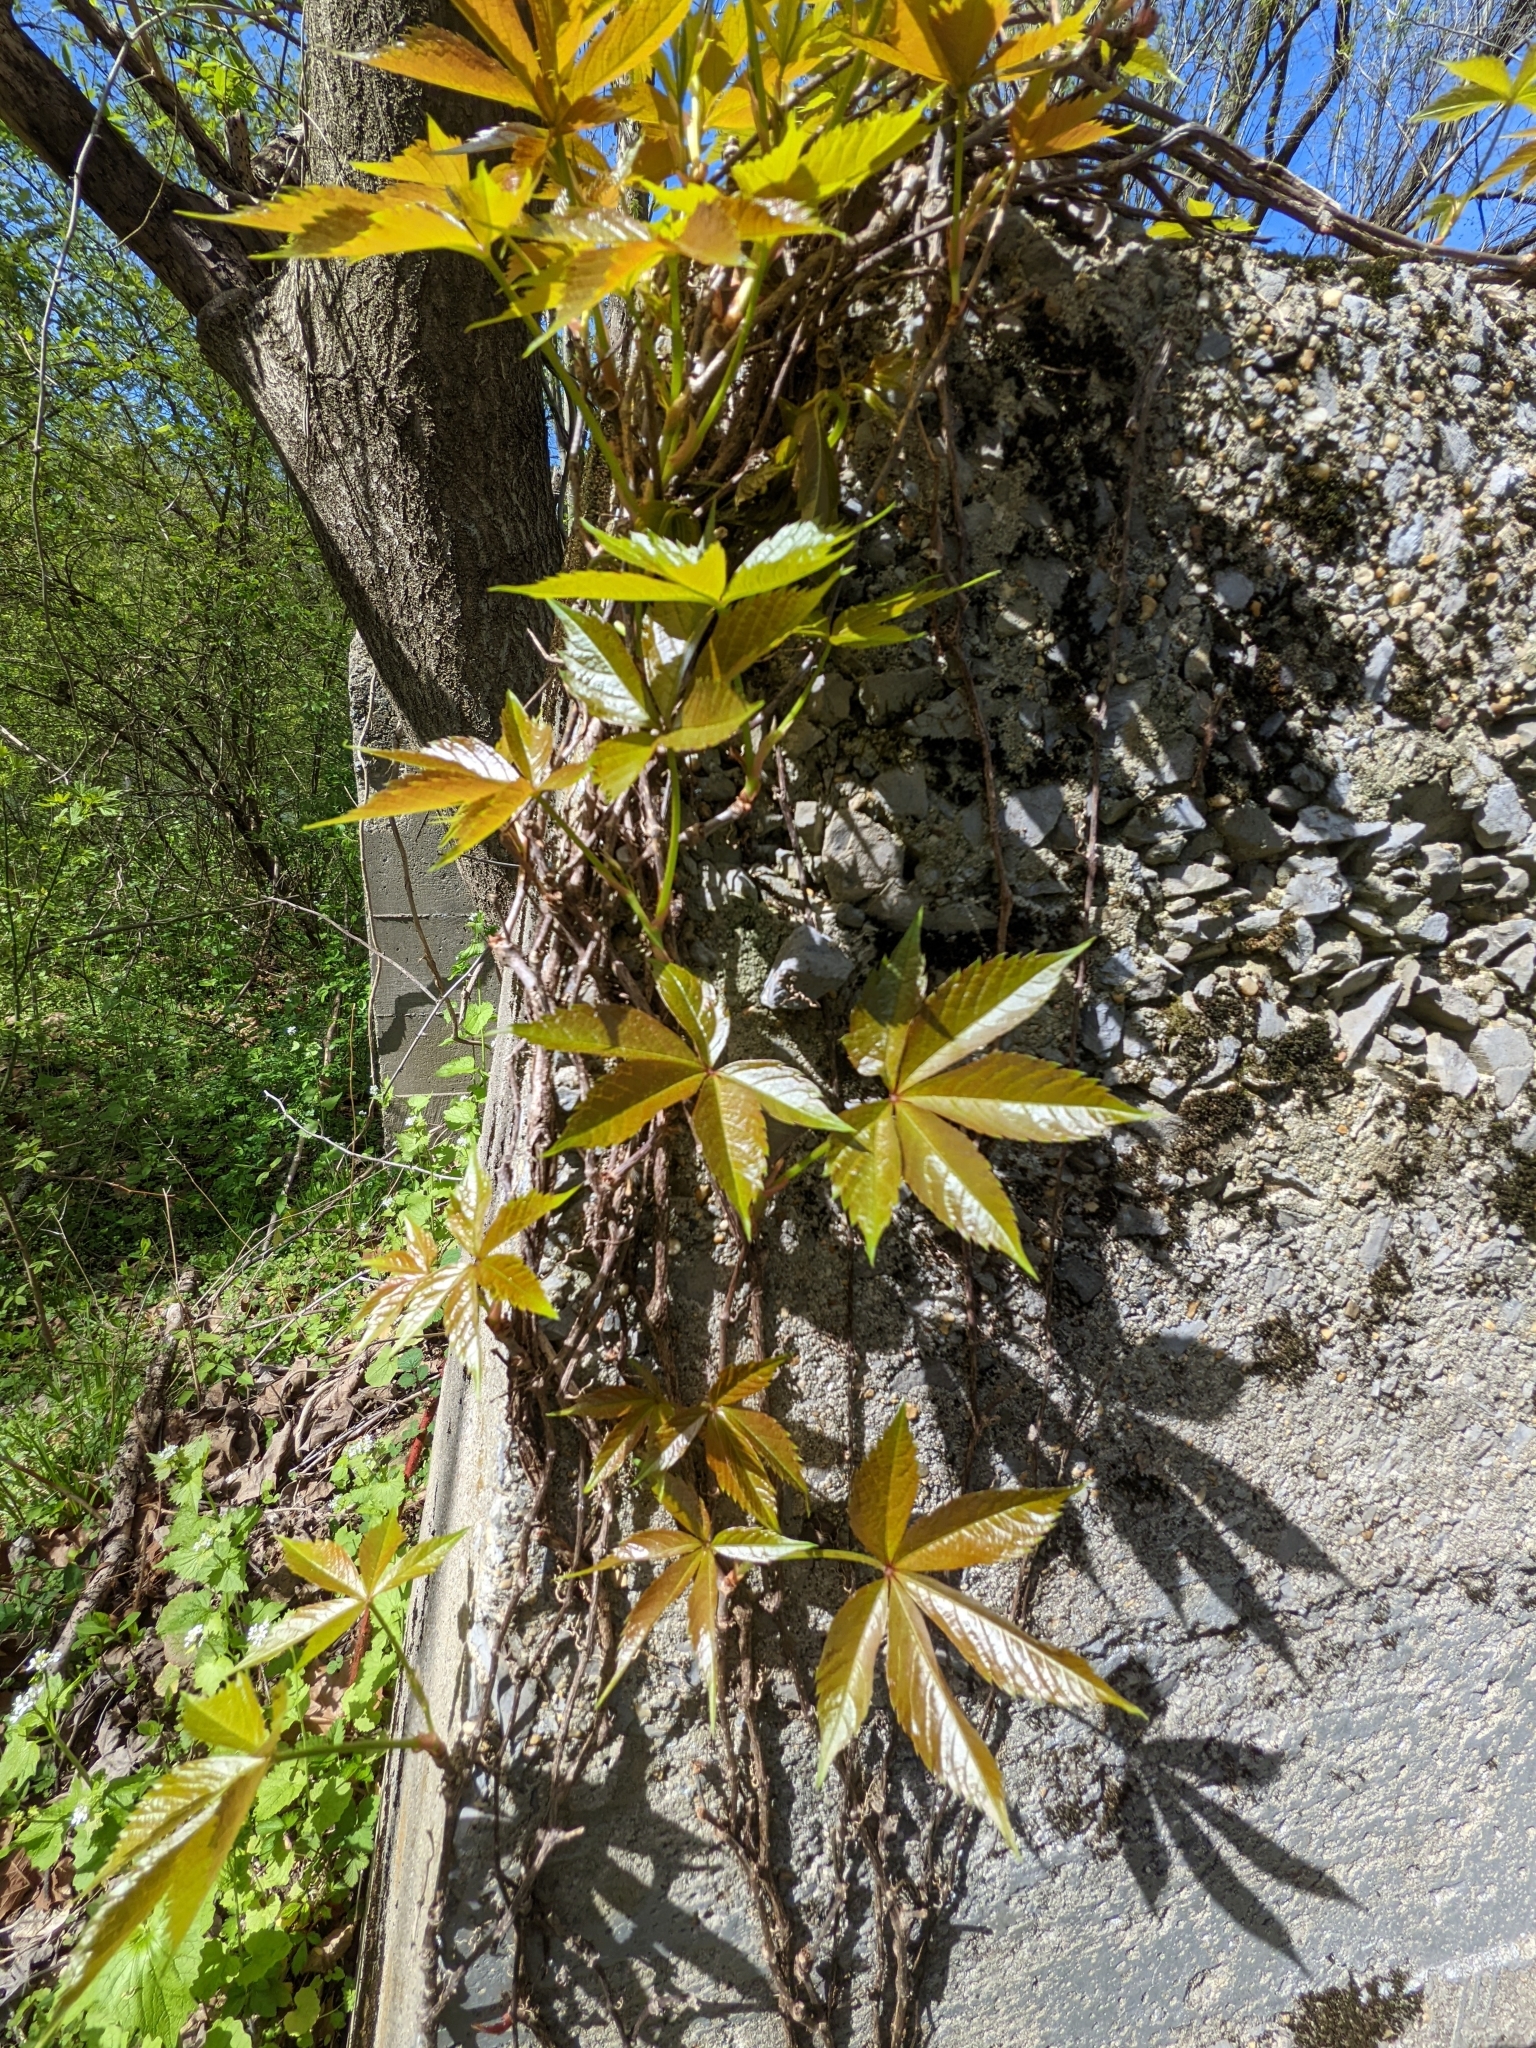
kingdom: Plantae
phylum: Tracheophyta
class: Magnoliopsida
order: Vitales
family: Vitaceae
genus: Parthenocissus
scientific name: Parthenocissus quinquefolia
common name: Virginia-creeper
